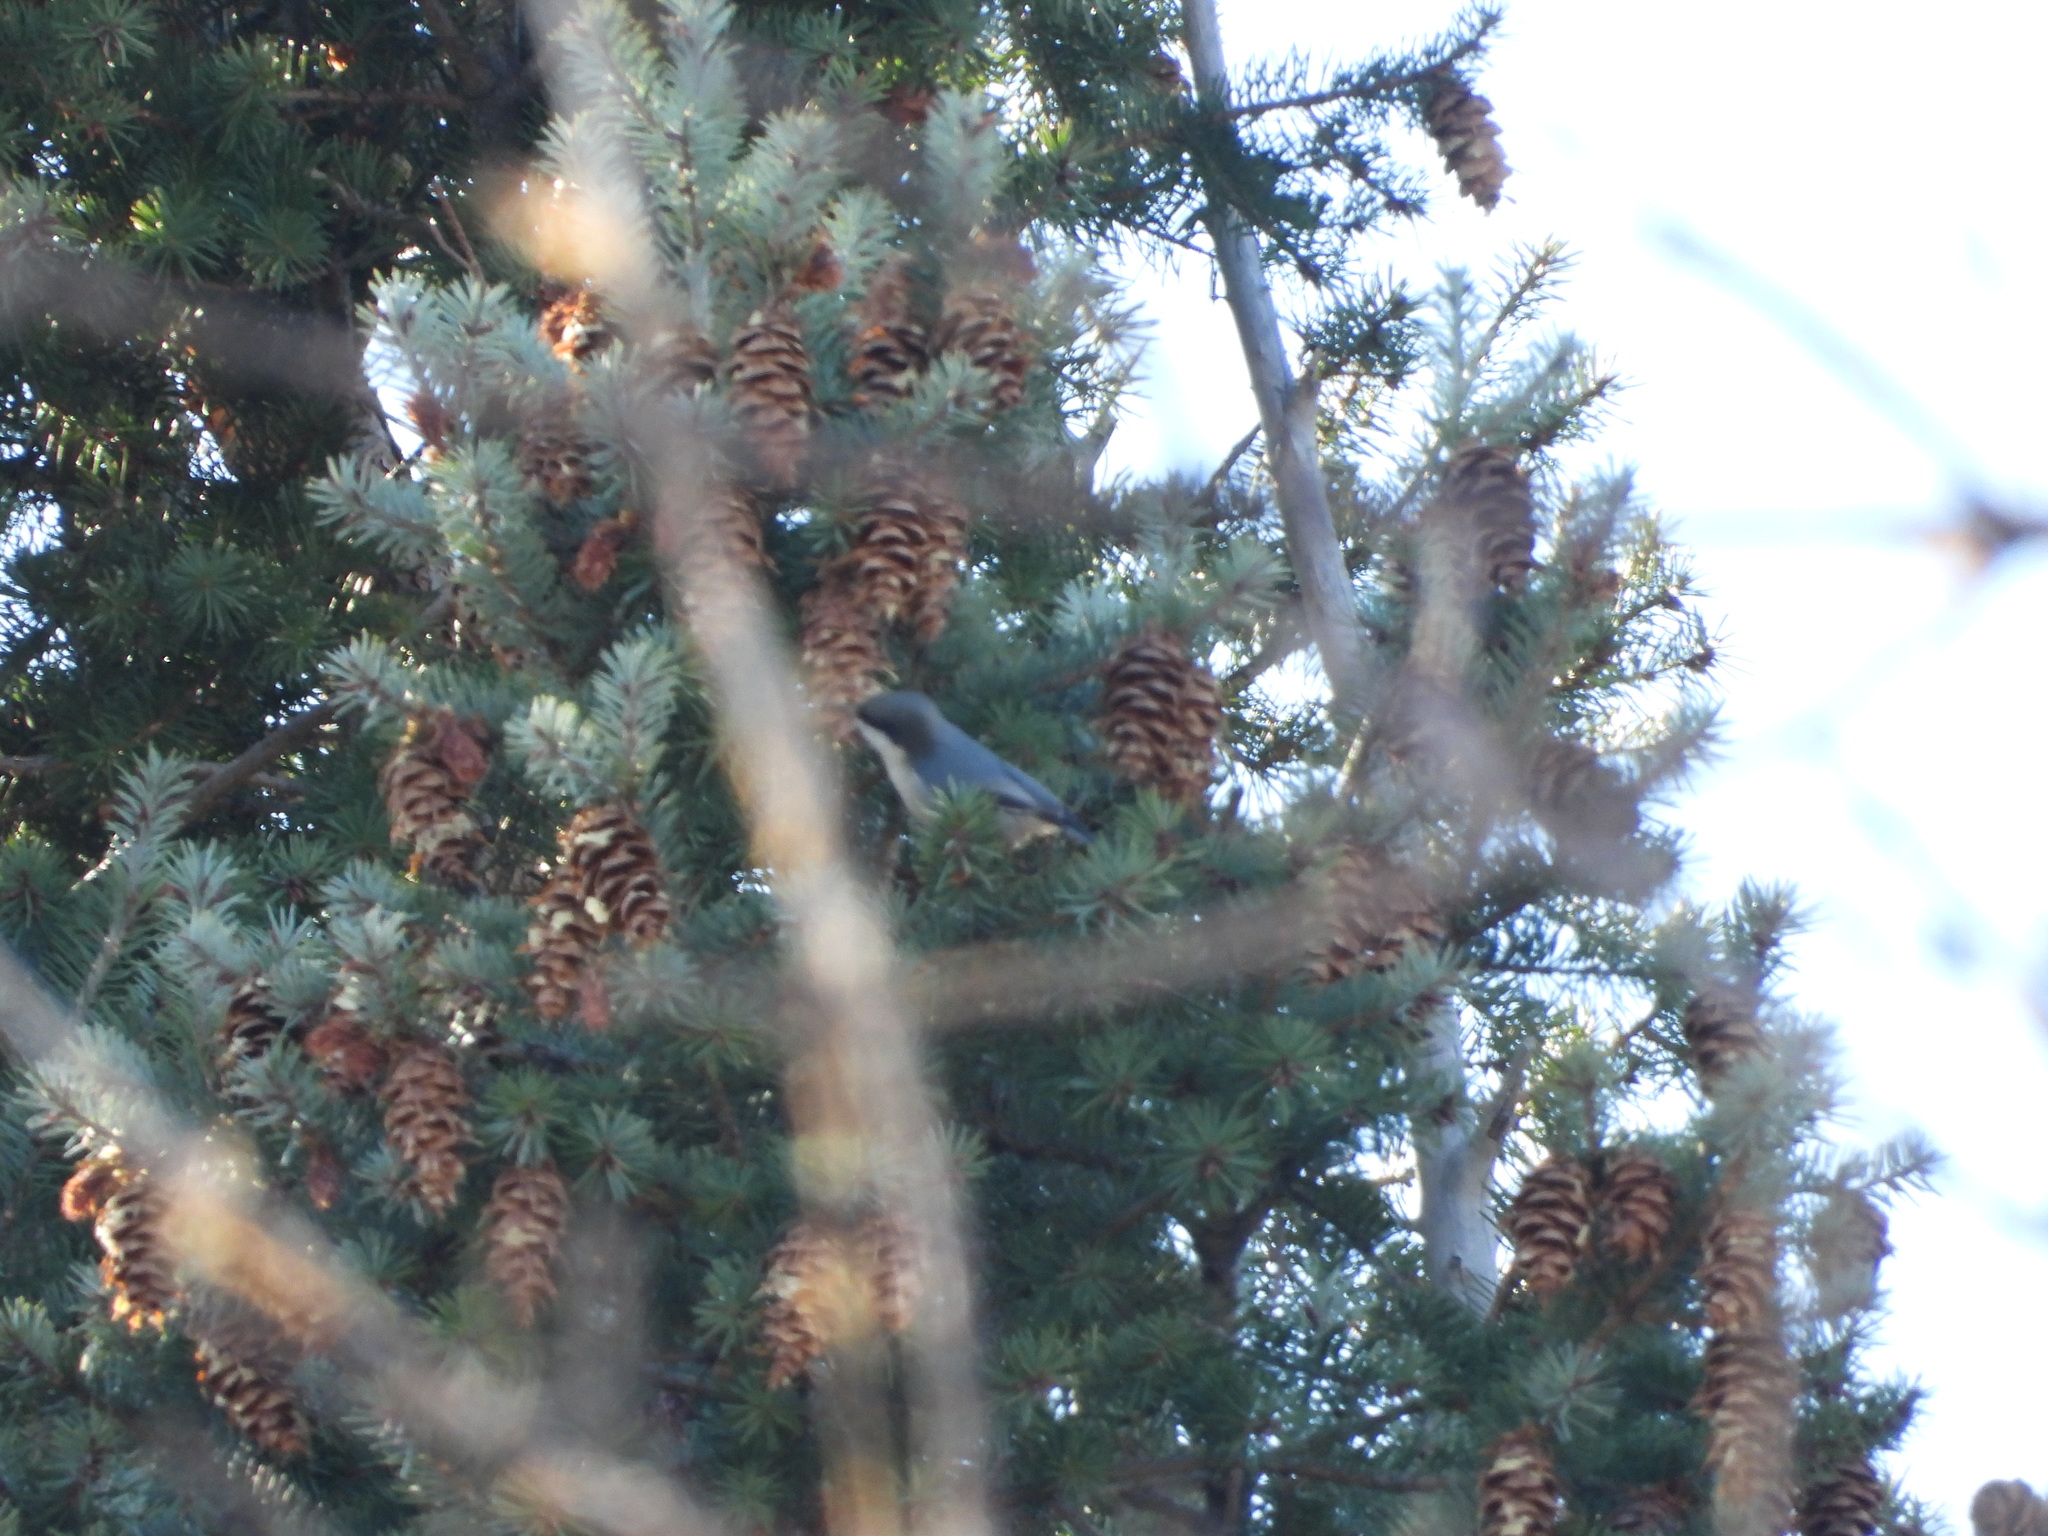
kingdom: Animalia
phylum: Chordata
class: Aves
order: Passeriformes
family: Sittidae
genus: Sitta
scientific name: Sitta pygmaea
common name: Pygmy nuthatch
